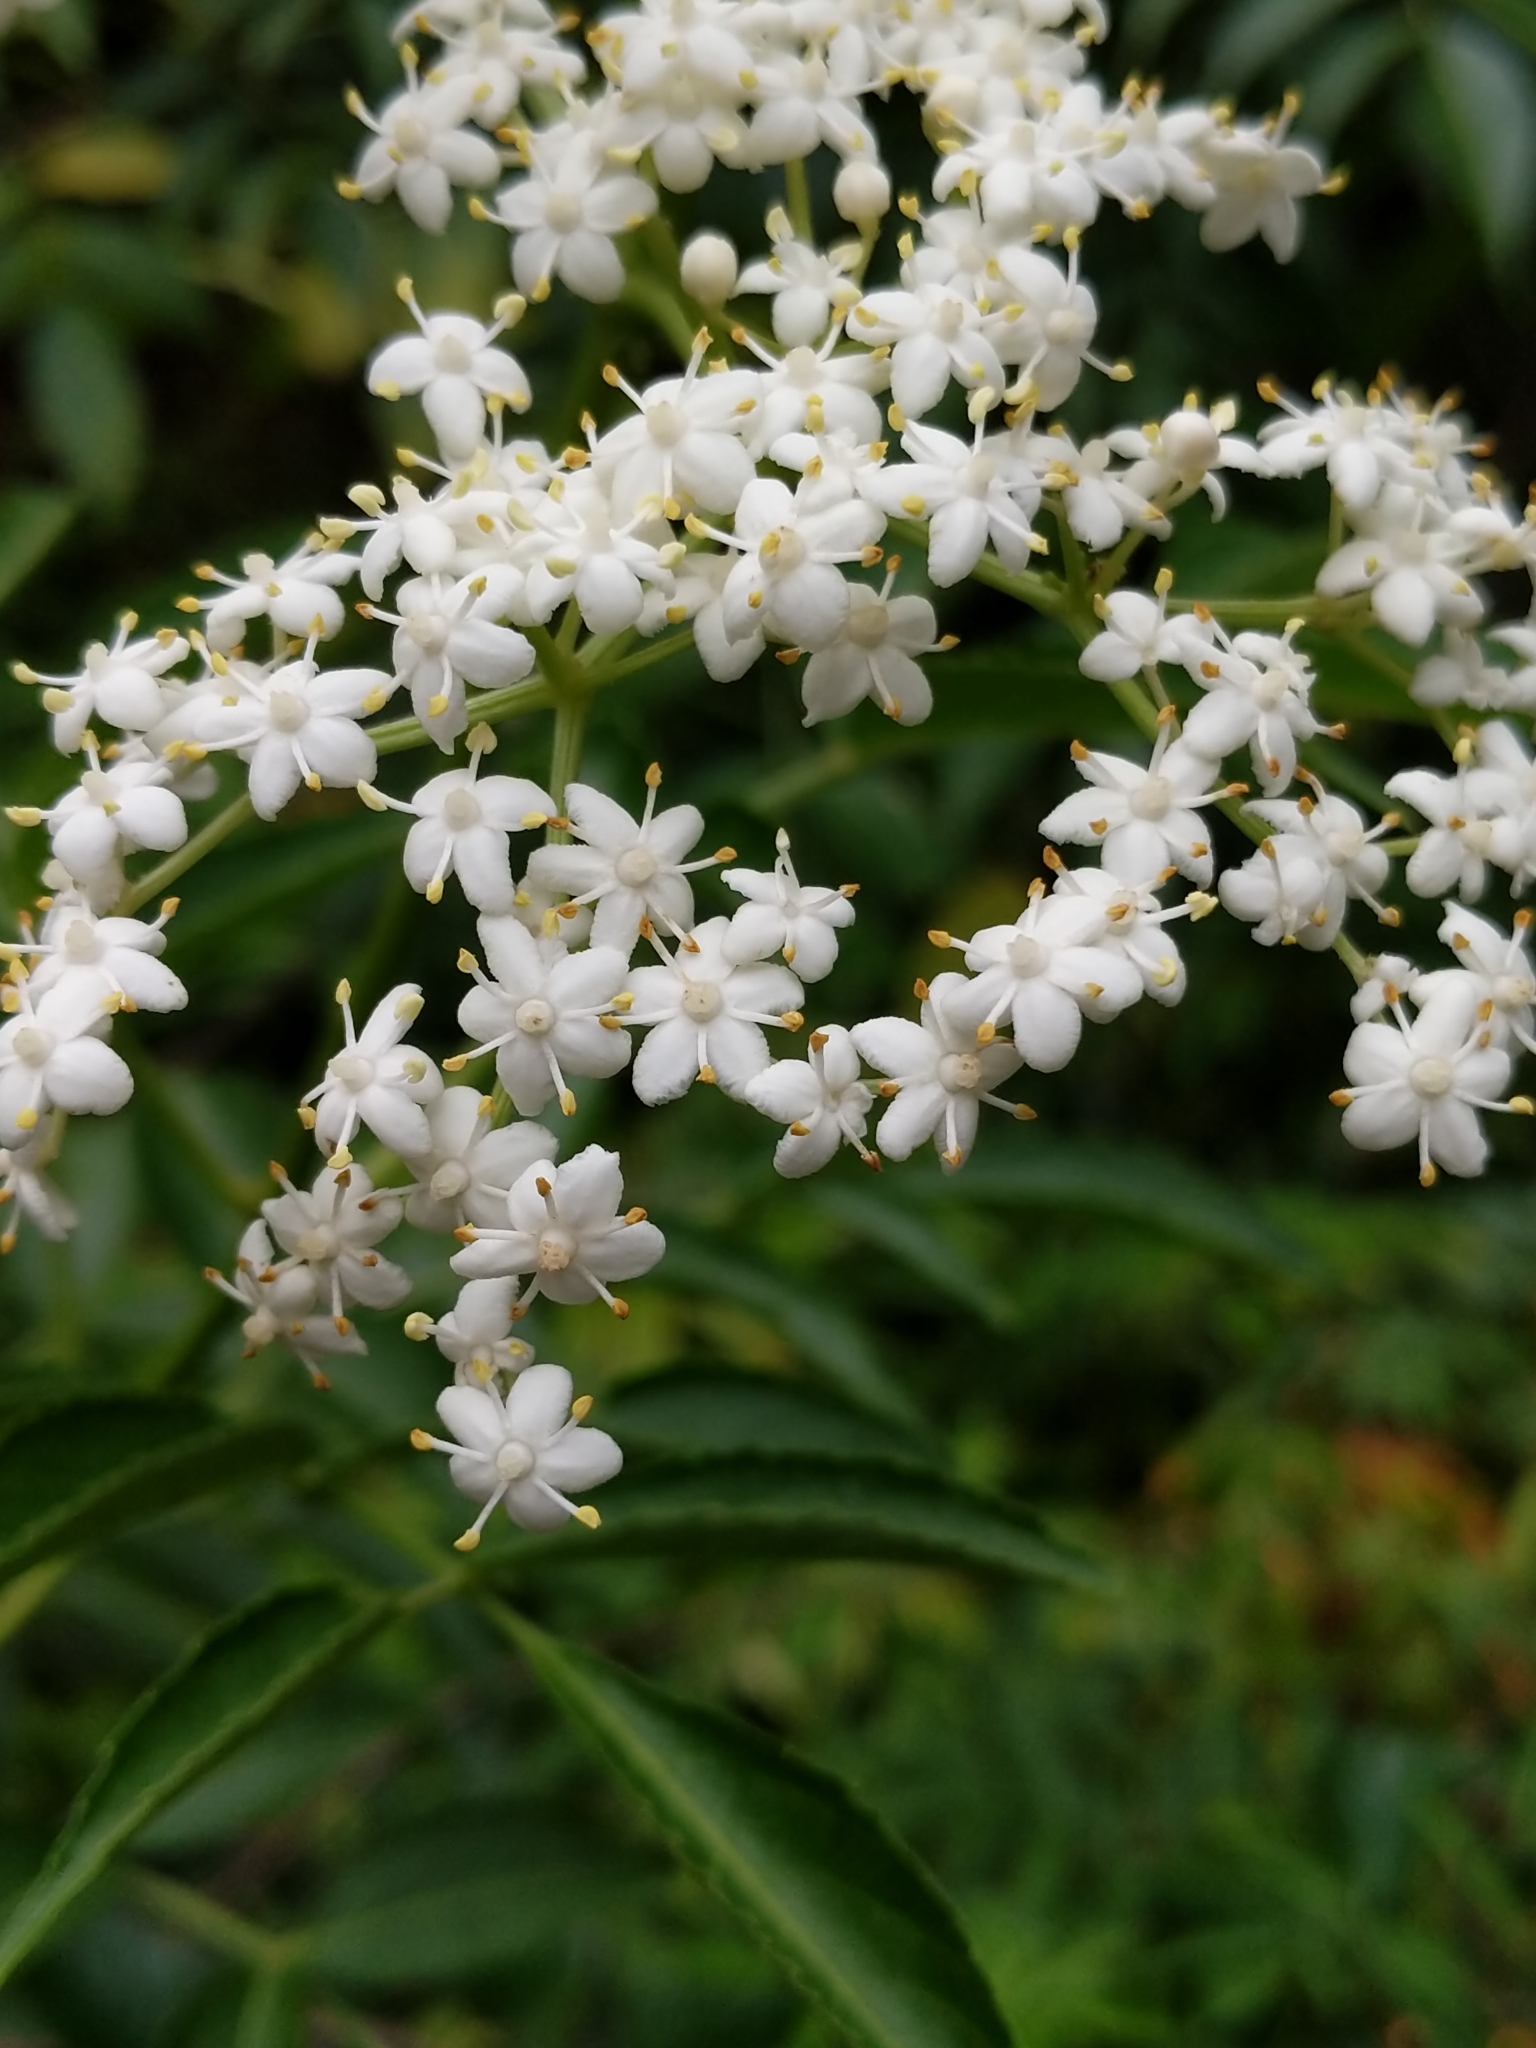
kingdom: Plantae
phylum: Tracheophyta
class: Magnoliopsida
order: Dipsacales
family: Viburnaceae
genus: Sambucus
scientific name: Sambucus cerulea
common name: Blue elder
